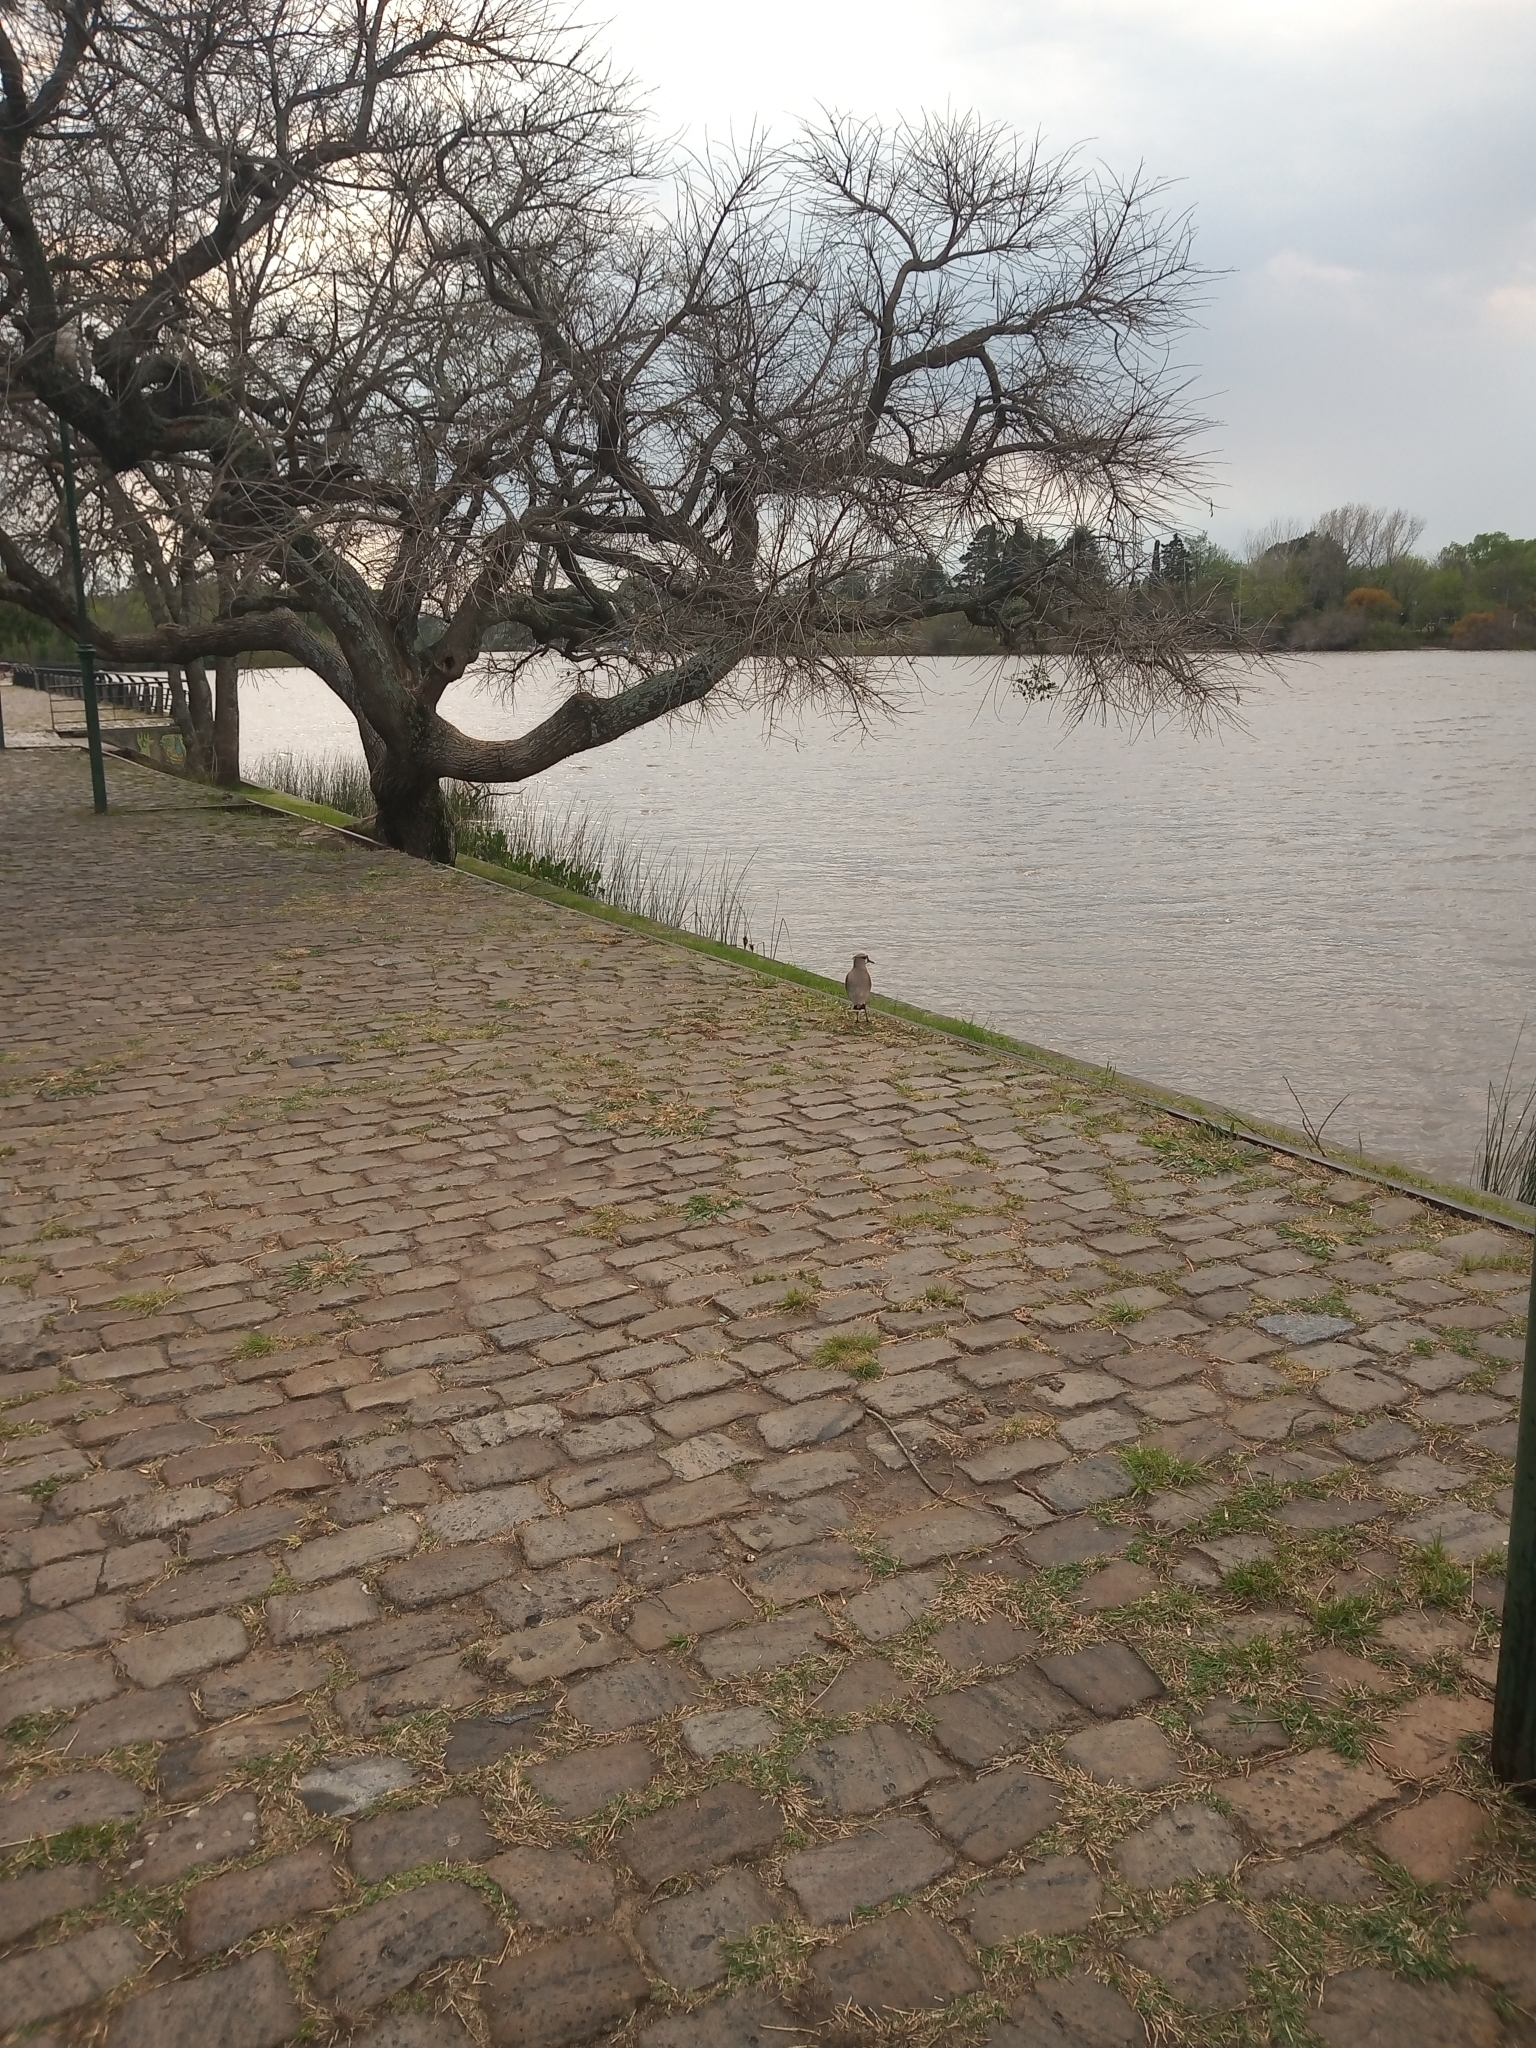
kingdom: Animalia
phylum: Chordata
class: Aves
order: Charadriiformes
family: Charadriidae
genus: Vanellus
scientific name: Vanellus chilensis
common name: Southern lapwing
